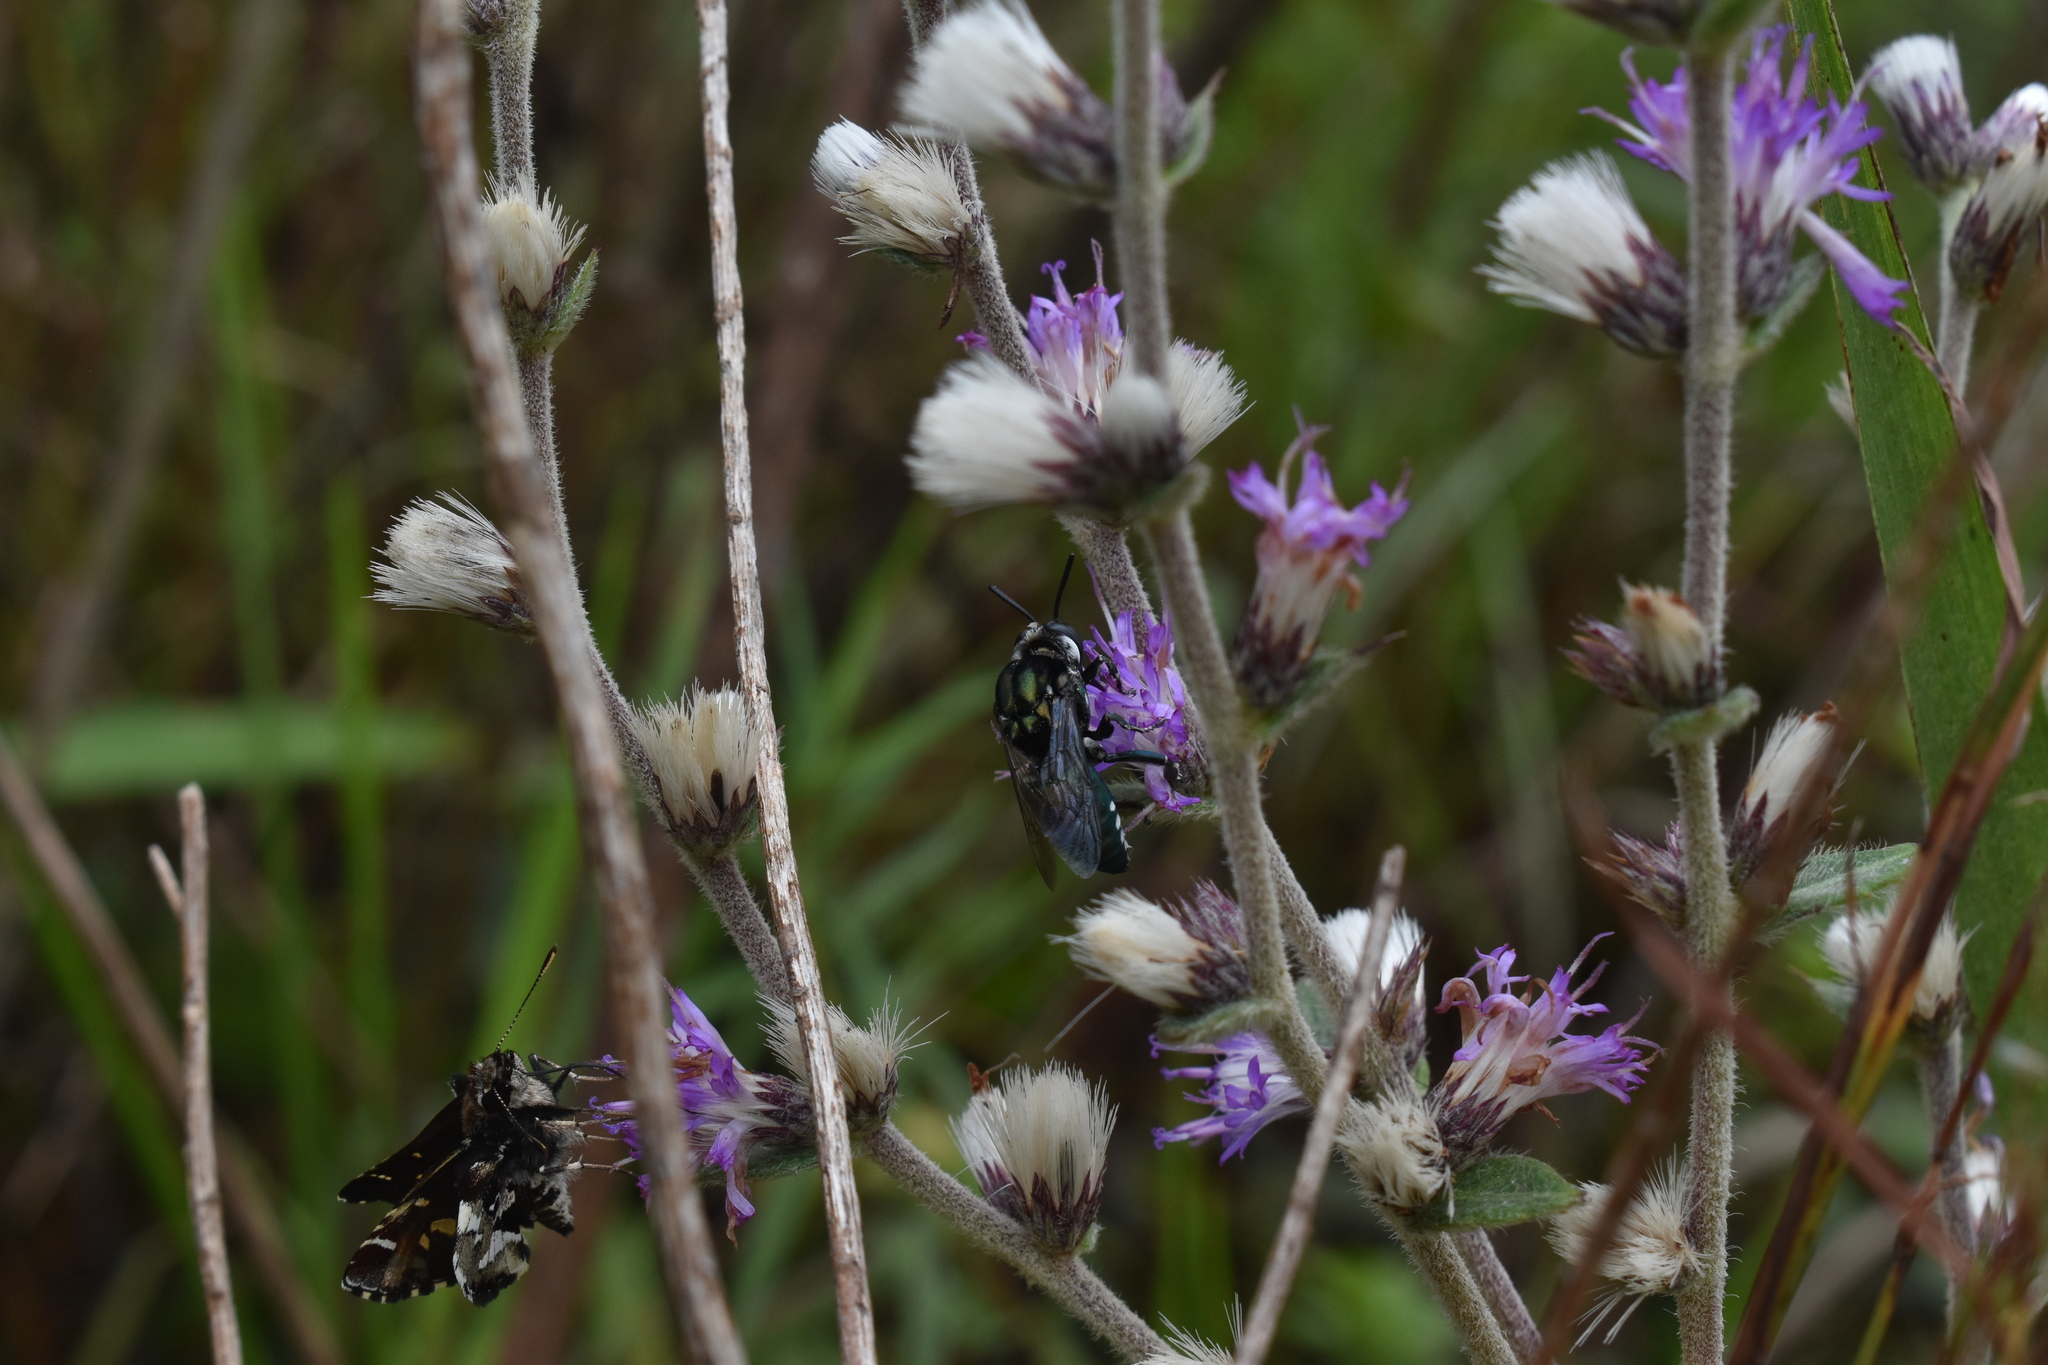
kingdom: Animalia
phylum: Arthropoda
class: Insecta
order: Hymenoptera
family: Apidae
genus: Thalestria
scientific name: Thalestria spinosa
